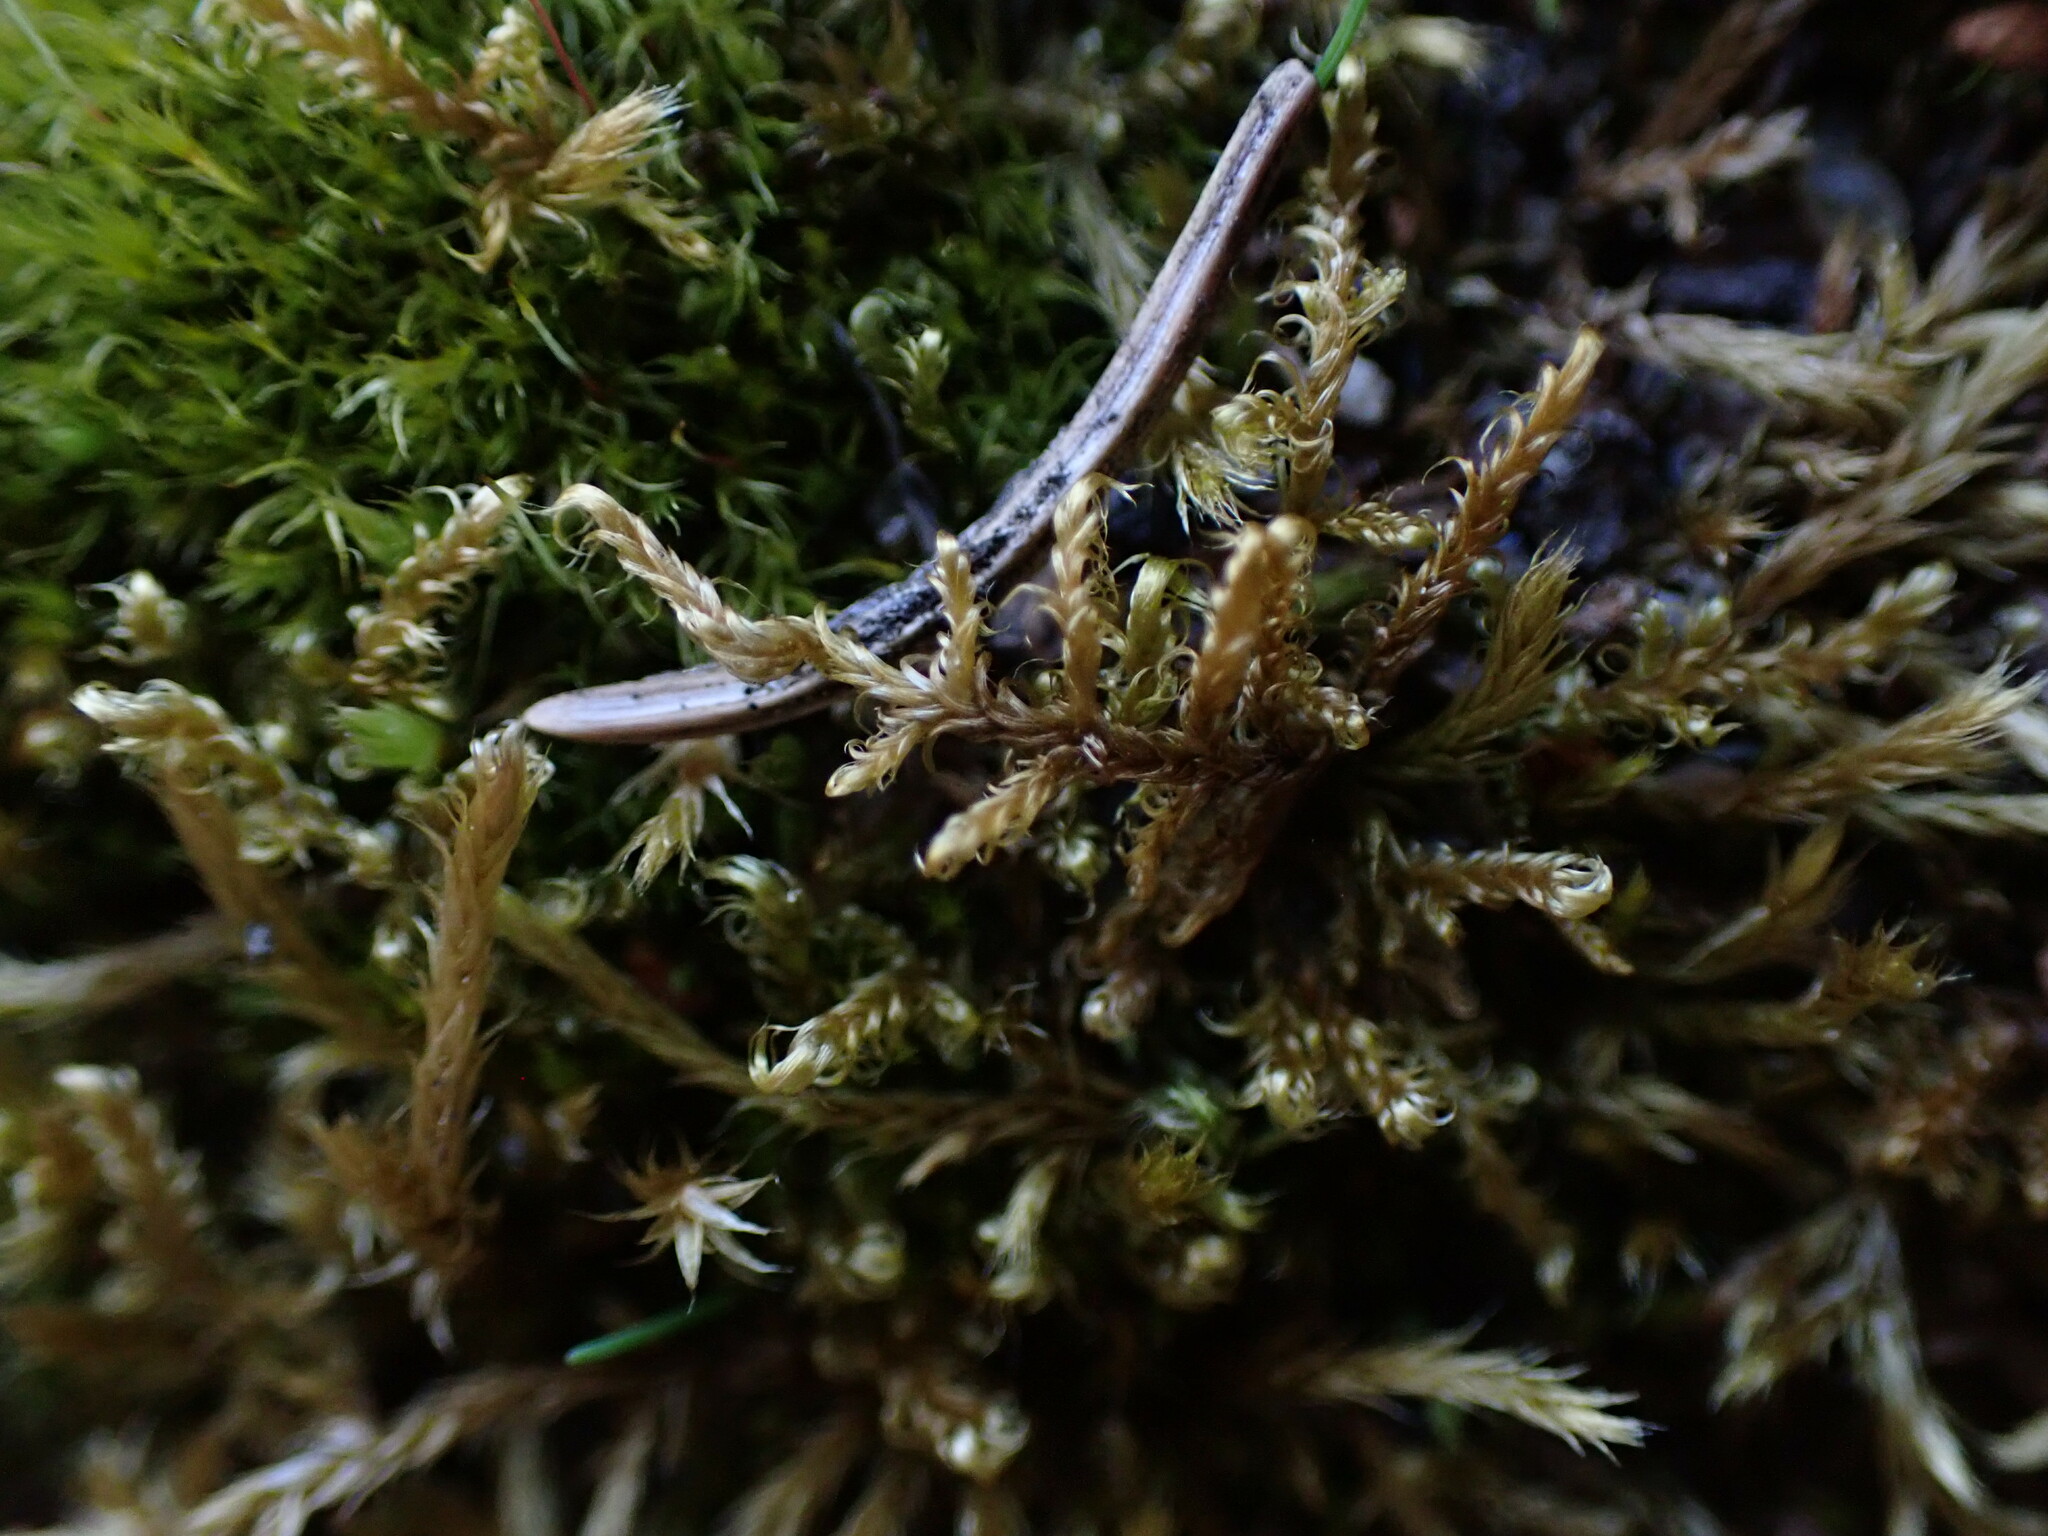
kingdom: Plantae
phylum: Bryophyta
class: Bryopsida
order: Hypnales
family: Scorpidiaceae
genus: Sanionia
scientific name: Sanionia uncinata
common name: Sickle moss
